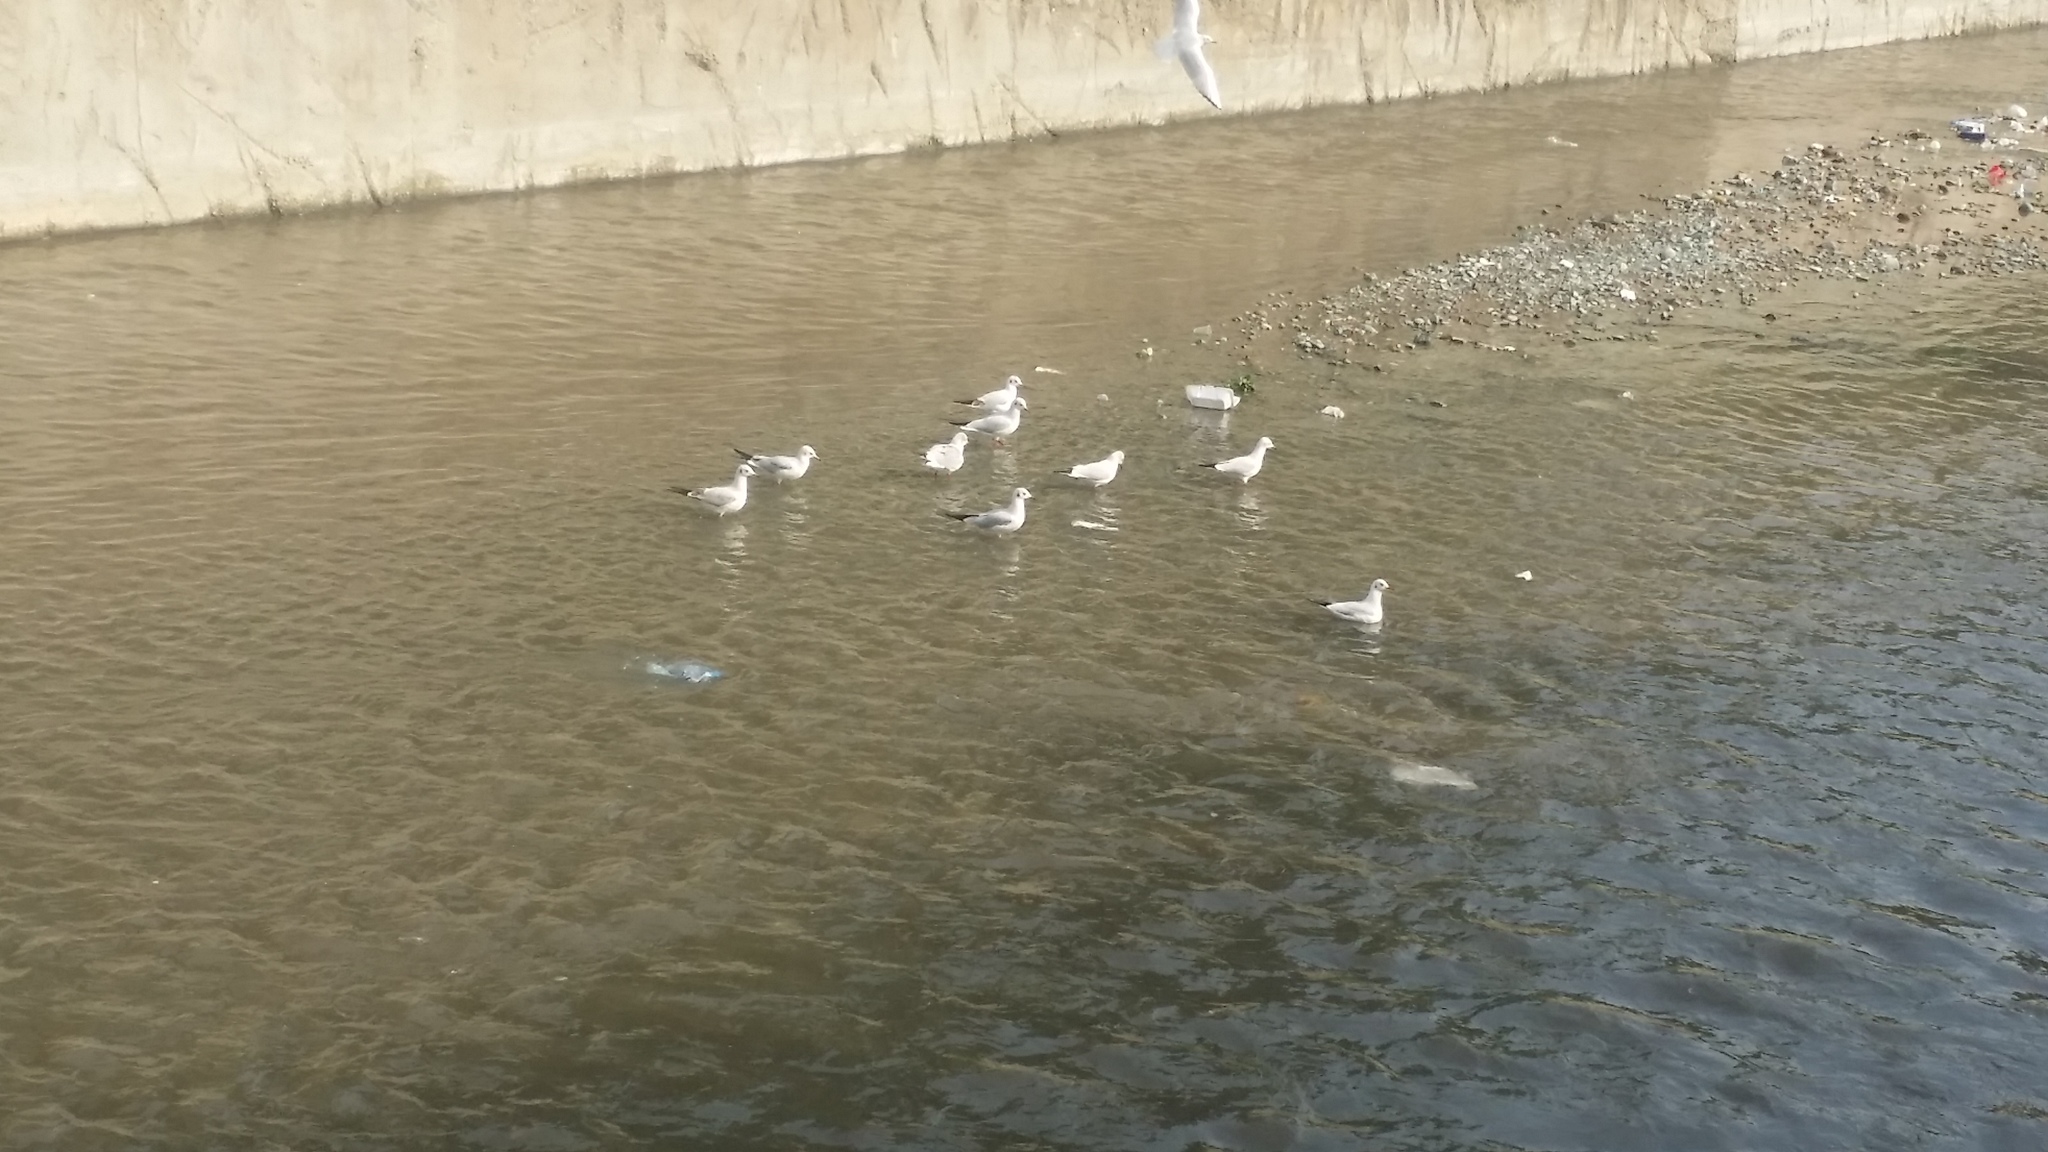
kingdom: Animalia
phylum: Chordata
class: Aves
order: Charadriiformes
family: Laridae
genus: Chroicocephalus
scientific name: Chroicocephalus ridibundus
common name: Black-headed gull
